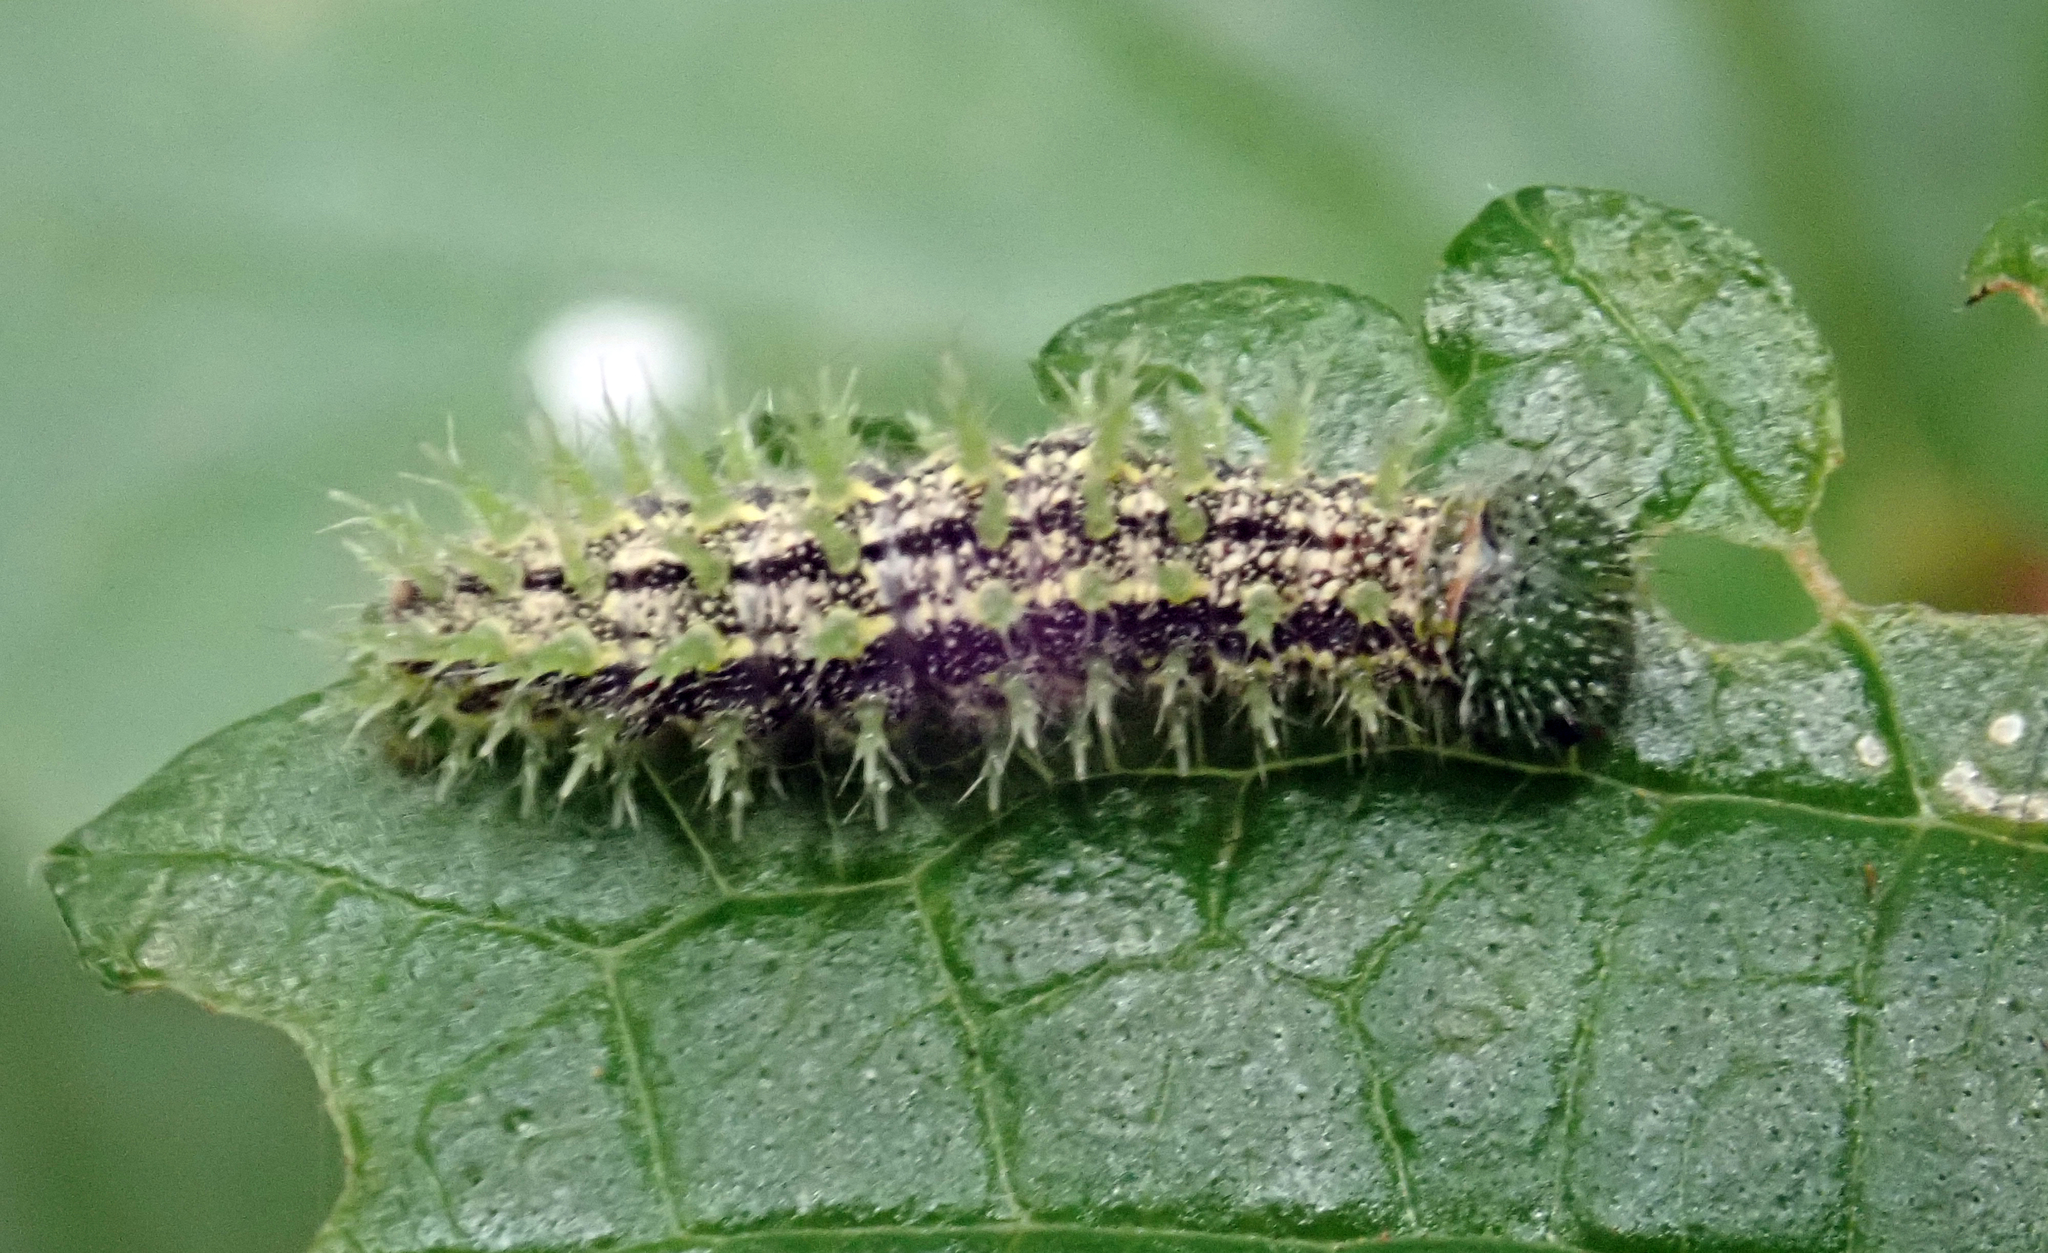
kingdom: Animalia
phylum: Arthropoda
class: Insecta
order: Lepidoptera
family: Nymphalidae
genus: Vanessa
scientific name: Vanessa gonerilla
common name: New zealand red admiral
